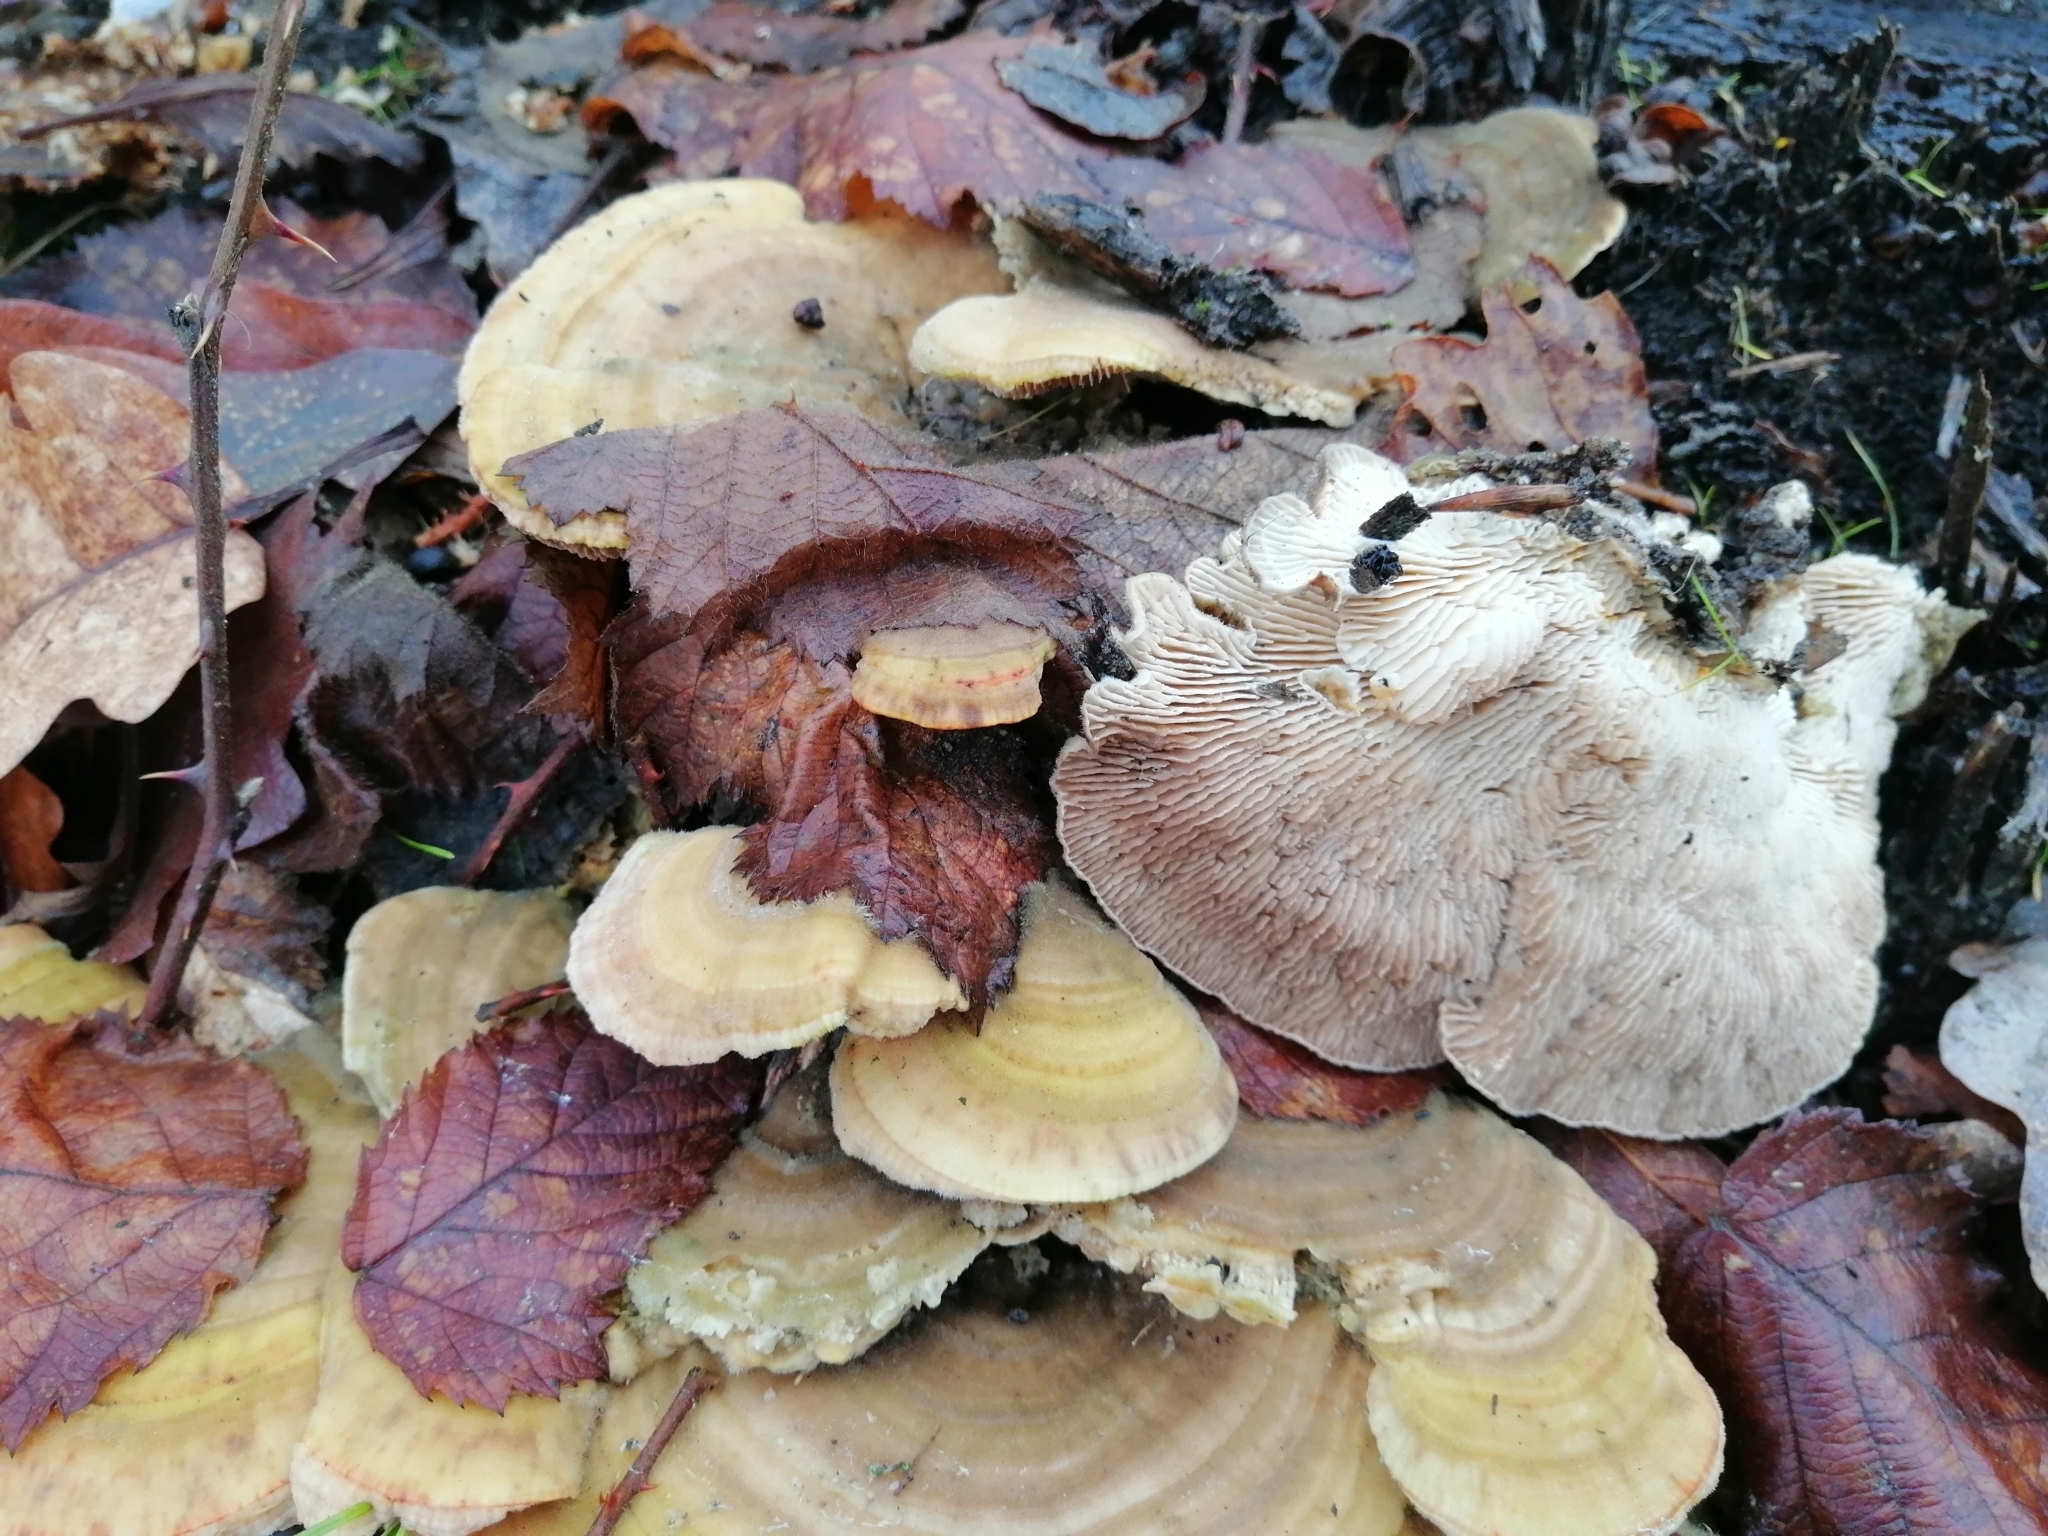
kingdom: Fungi
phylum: Basidiomycota
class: Agaricomycetes
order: Polyporales
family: Polyporaceae
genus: Lenzites
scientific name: Lenzites betulinus
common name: Birch mazegill
